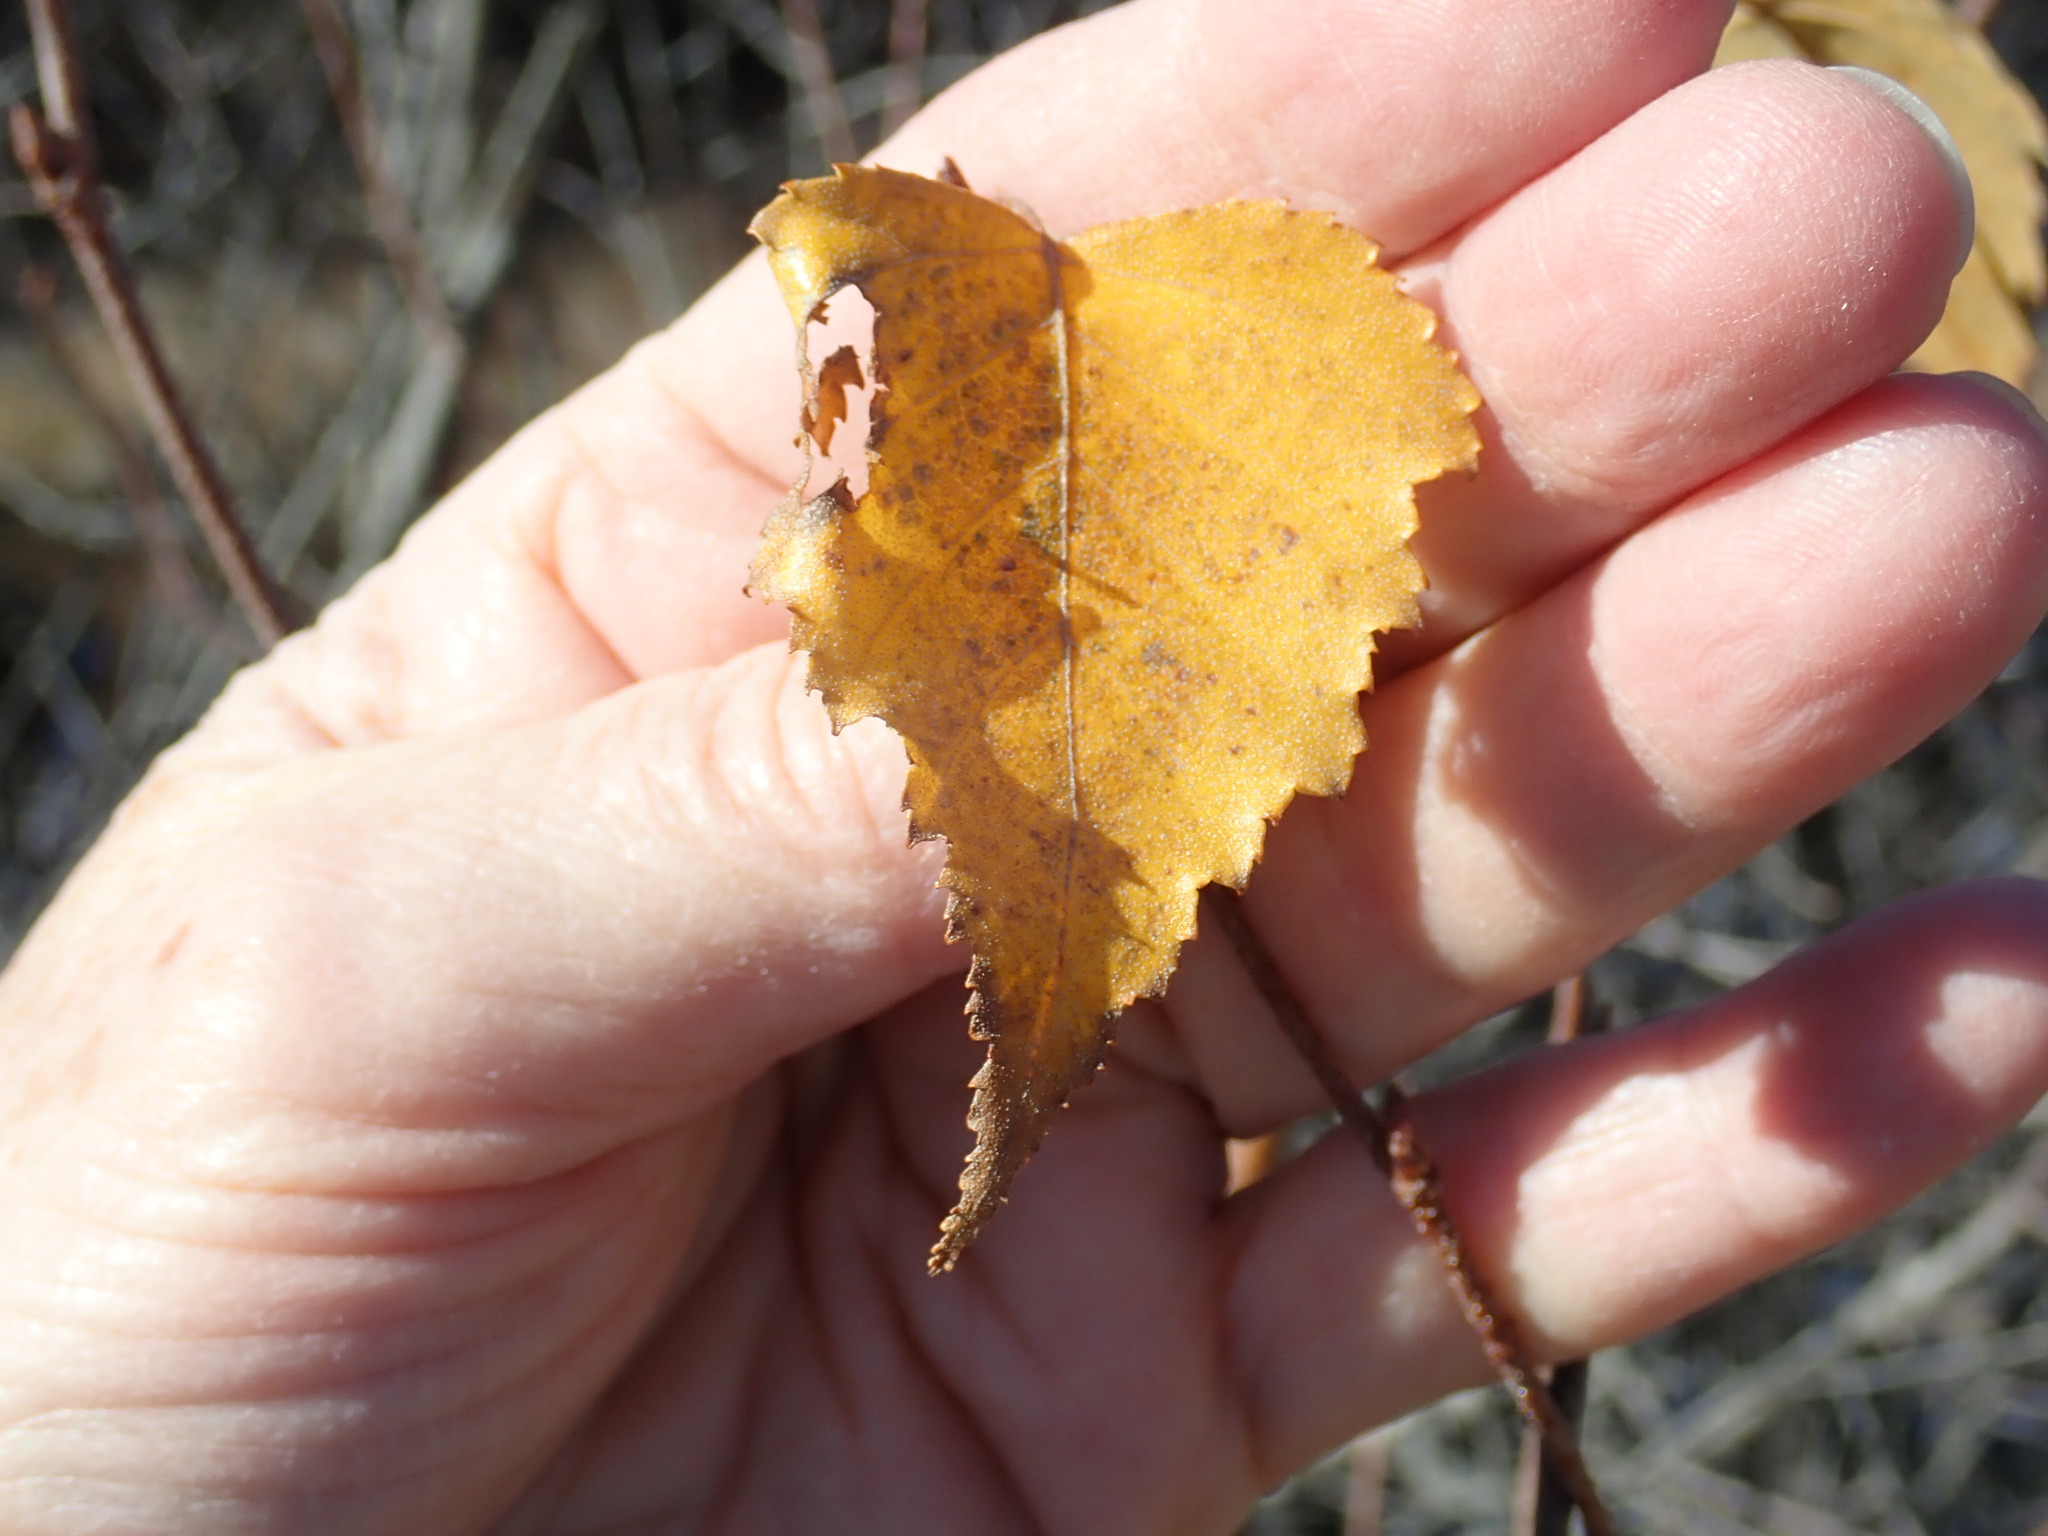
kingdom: Plantae
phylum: Tracheophyta
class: Magnoliopsida
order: Fagales
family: Betulaceae
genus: Betula
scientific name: Betula populifolia
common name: Fire birch
